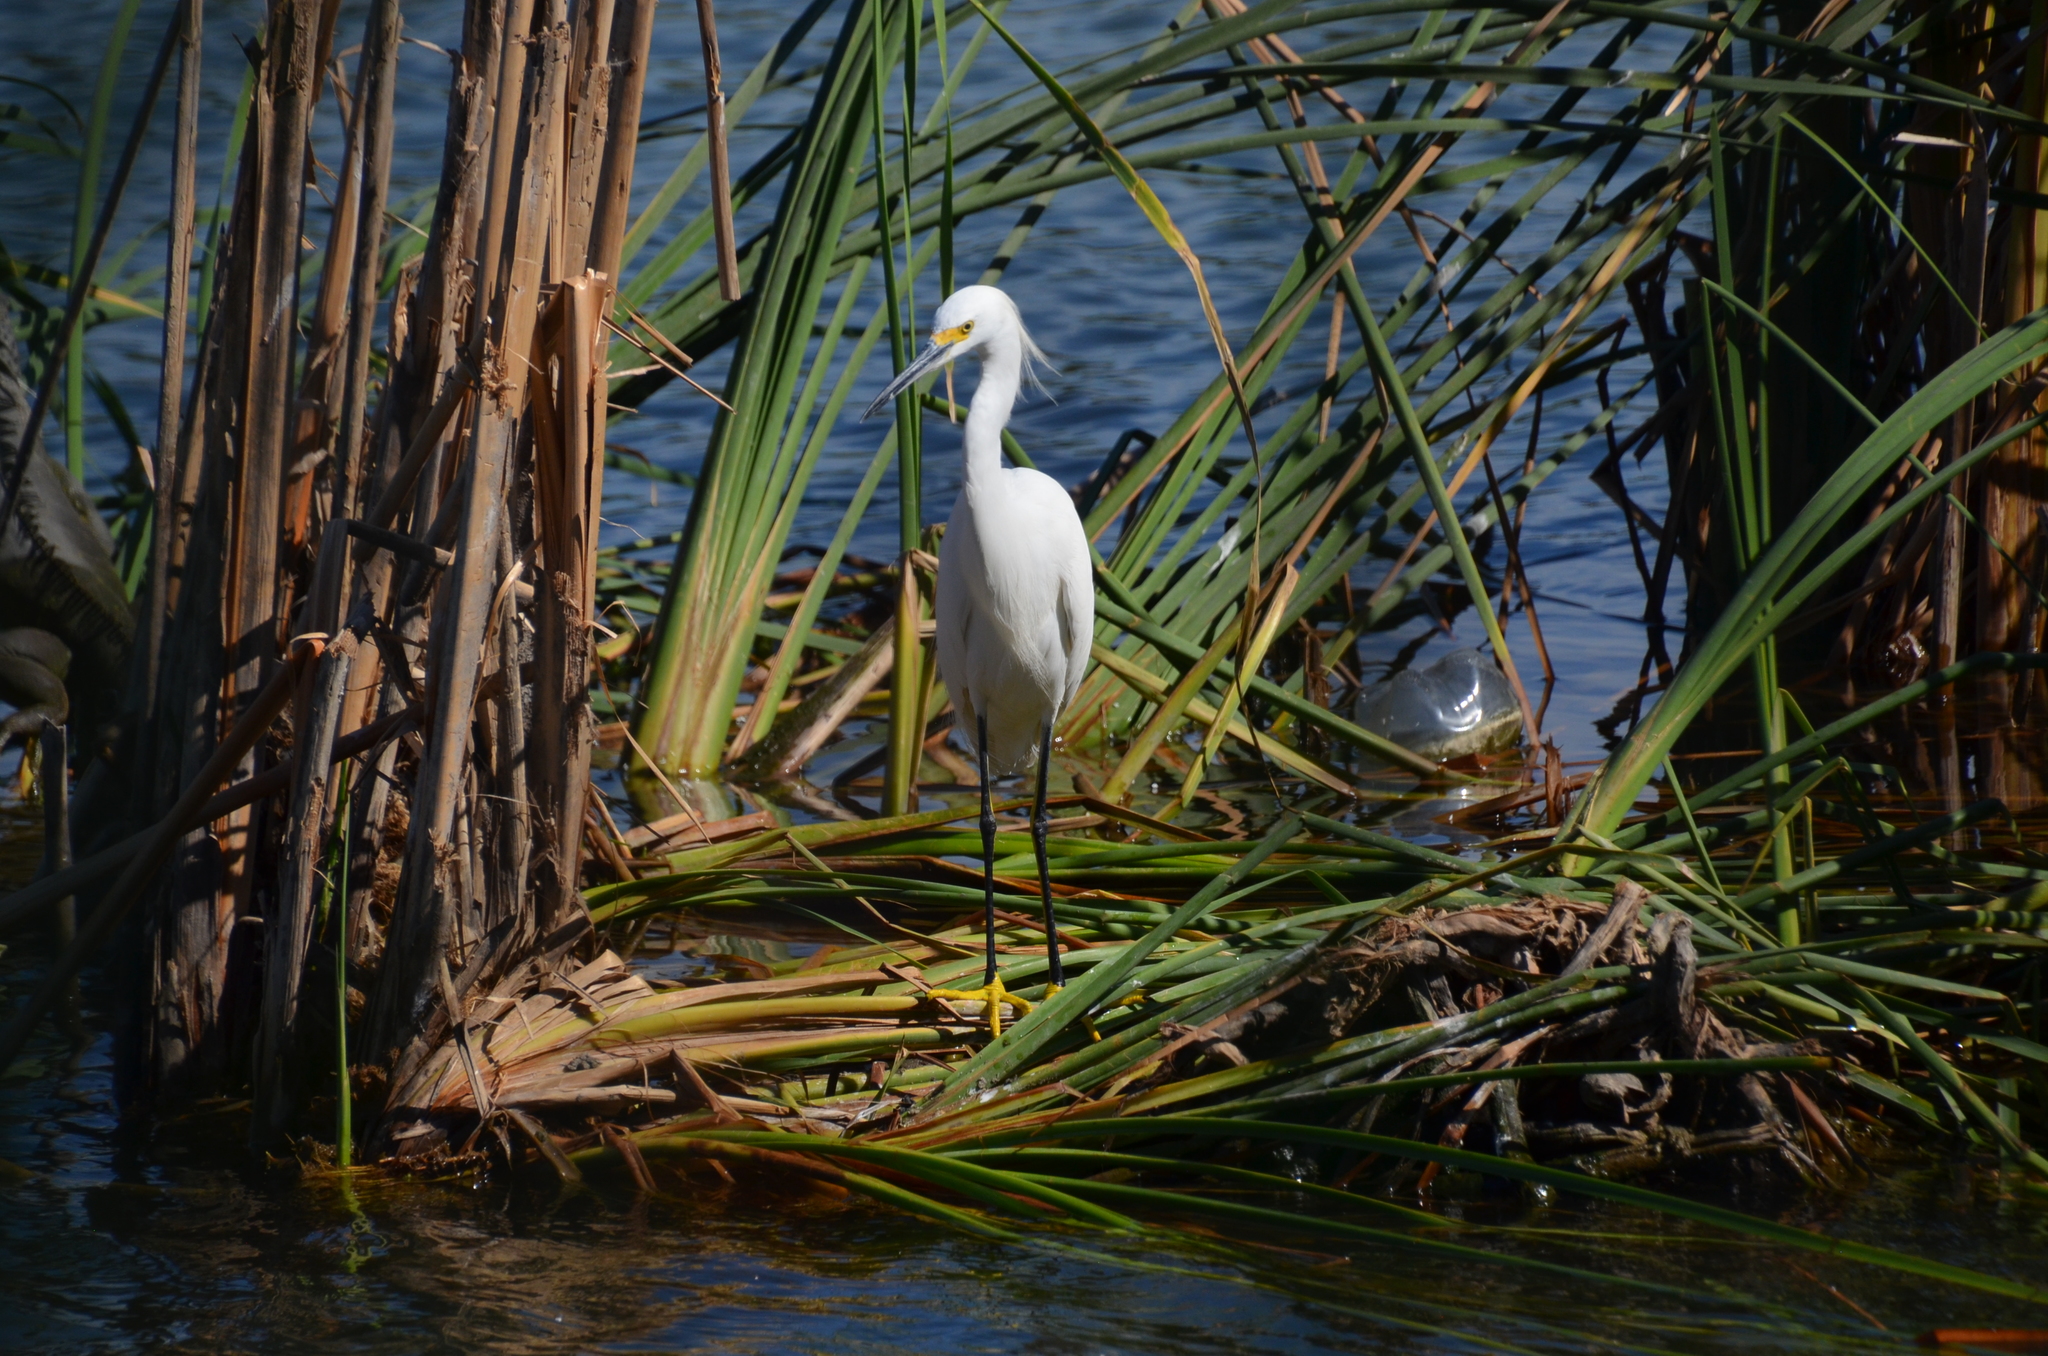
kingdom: Animalia
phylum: Chordata
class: Aves
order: Pelecaniformes
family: Ardeidae
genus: Egretta
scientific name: Egretta thula
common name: Snowy egret
